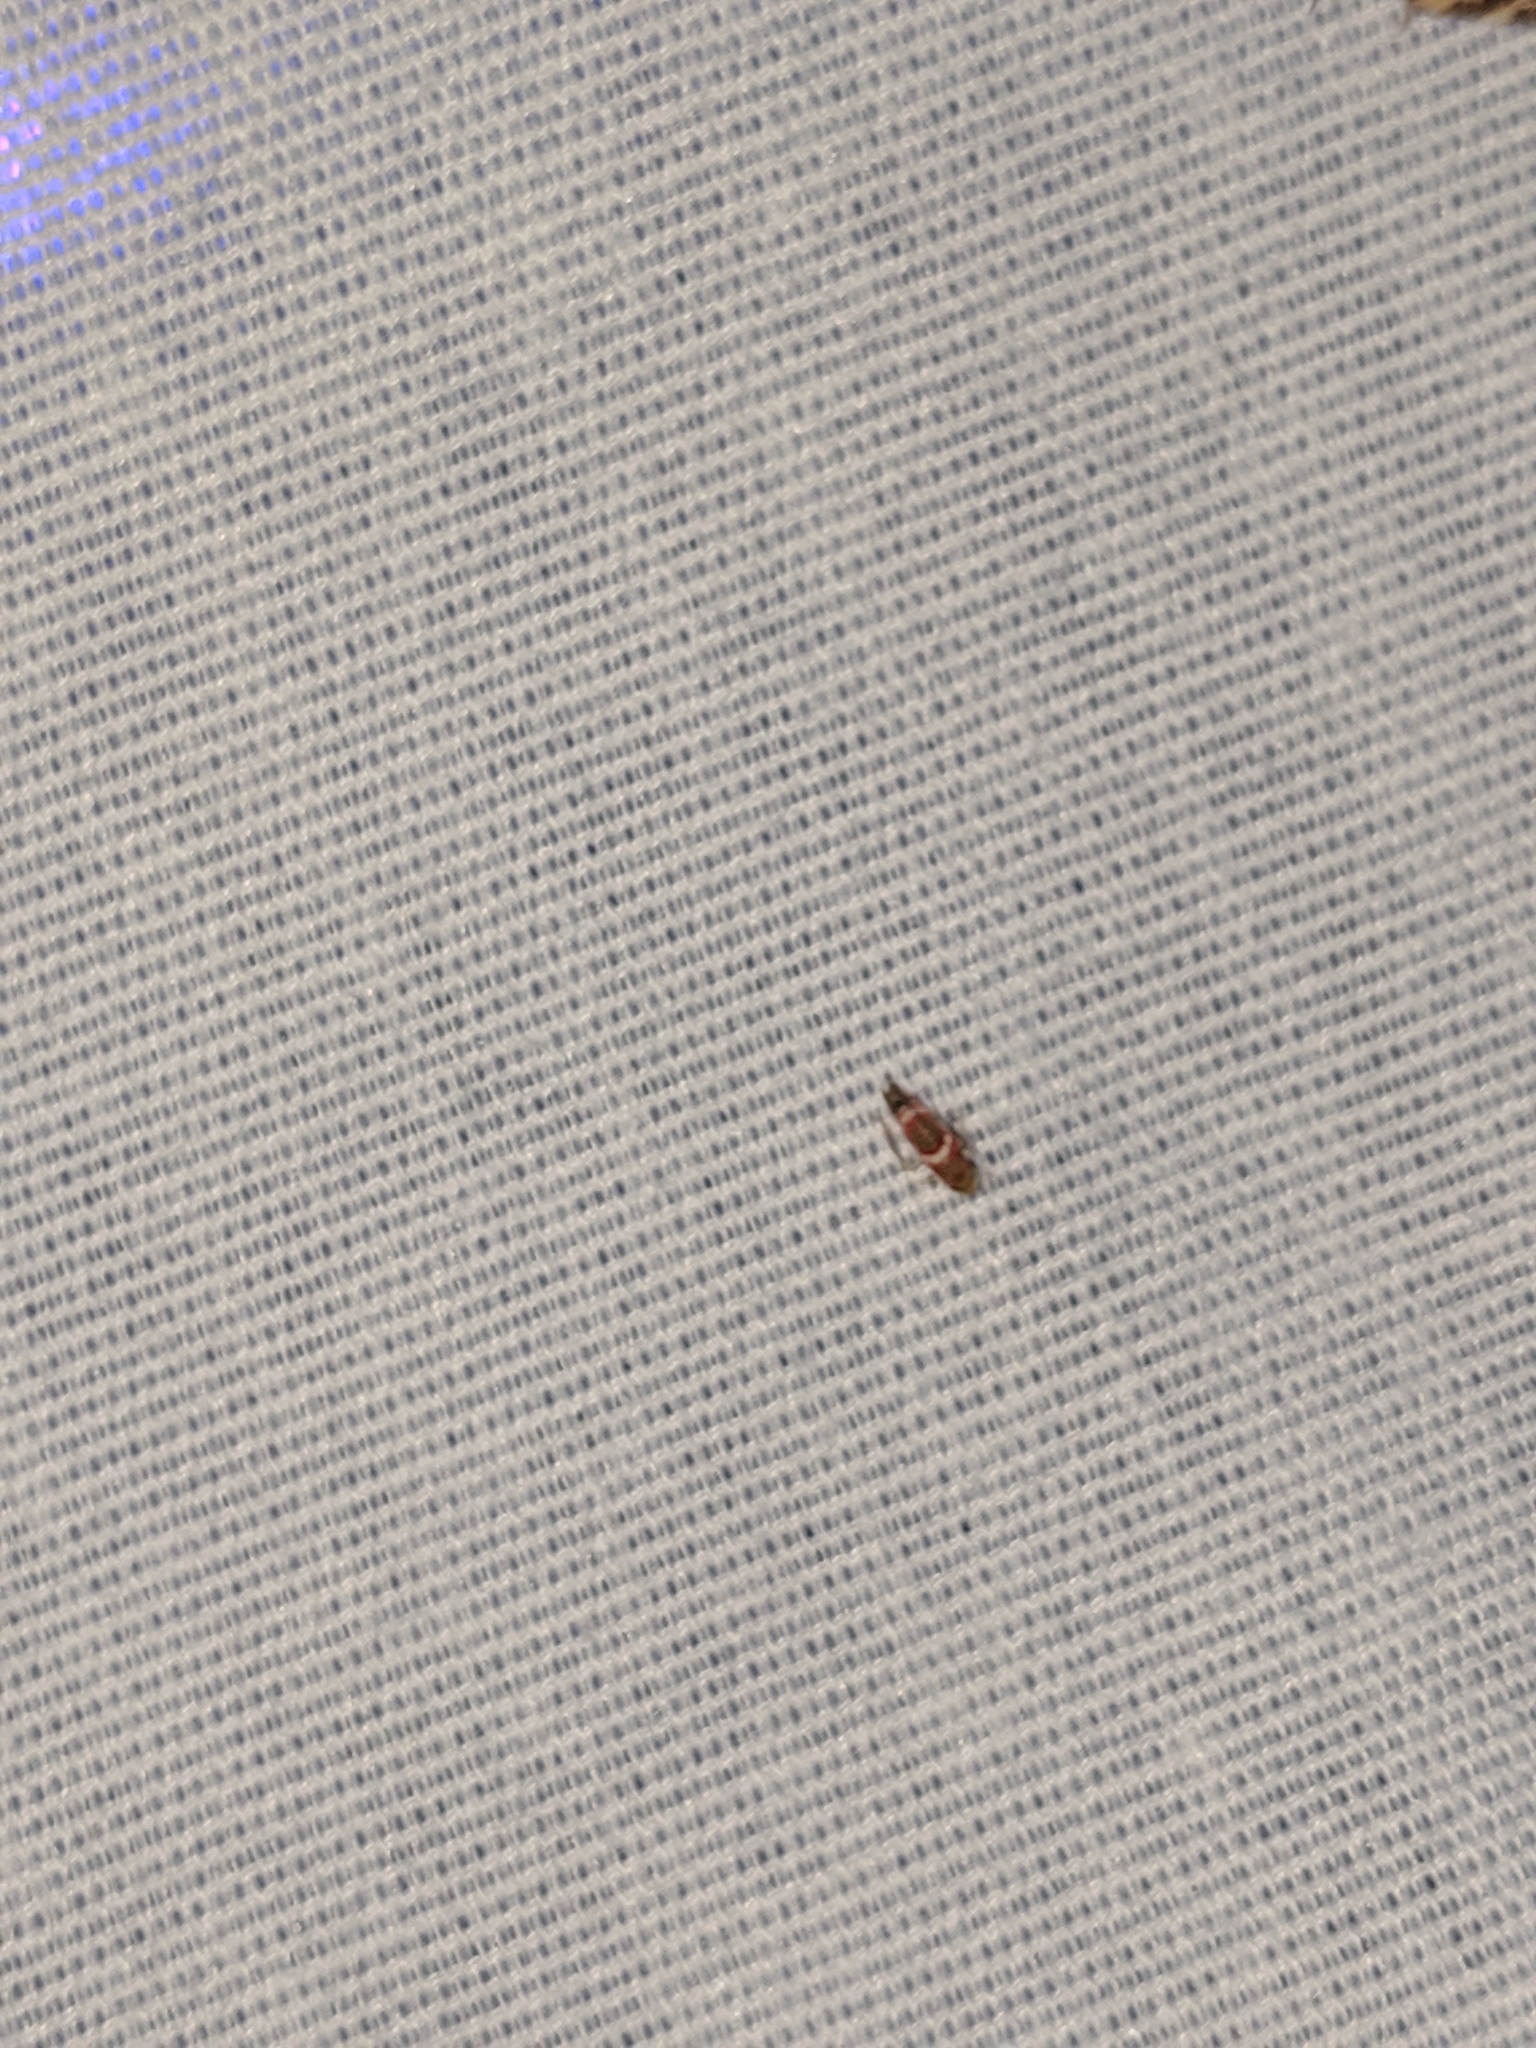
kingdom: Animalia
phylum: Arthropoda
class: Insecta
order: Hemiptera
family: Cicadellidae
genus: Erythroneura
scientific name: Erythroneura vitis
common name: Grapevine leafhopper
